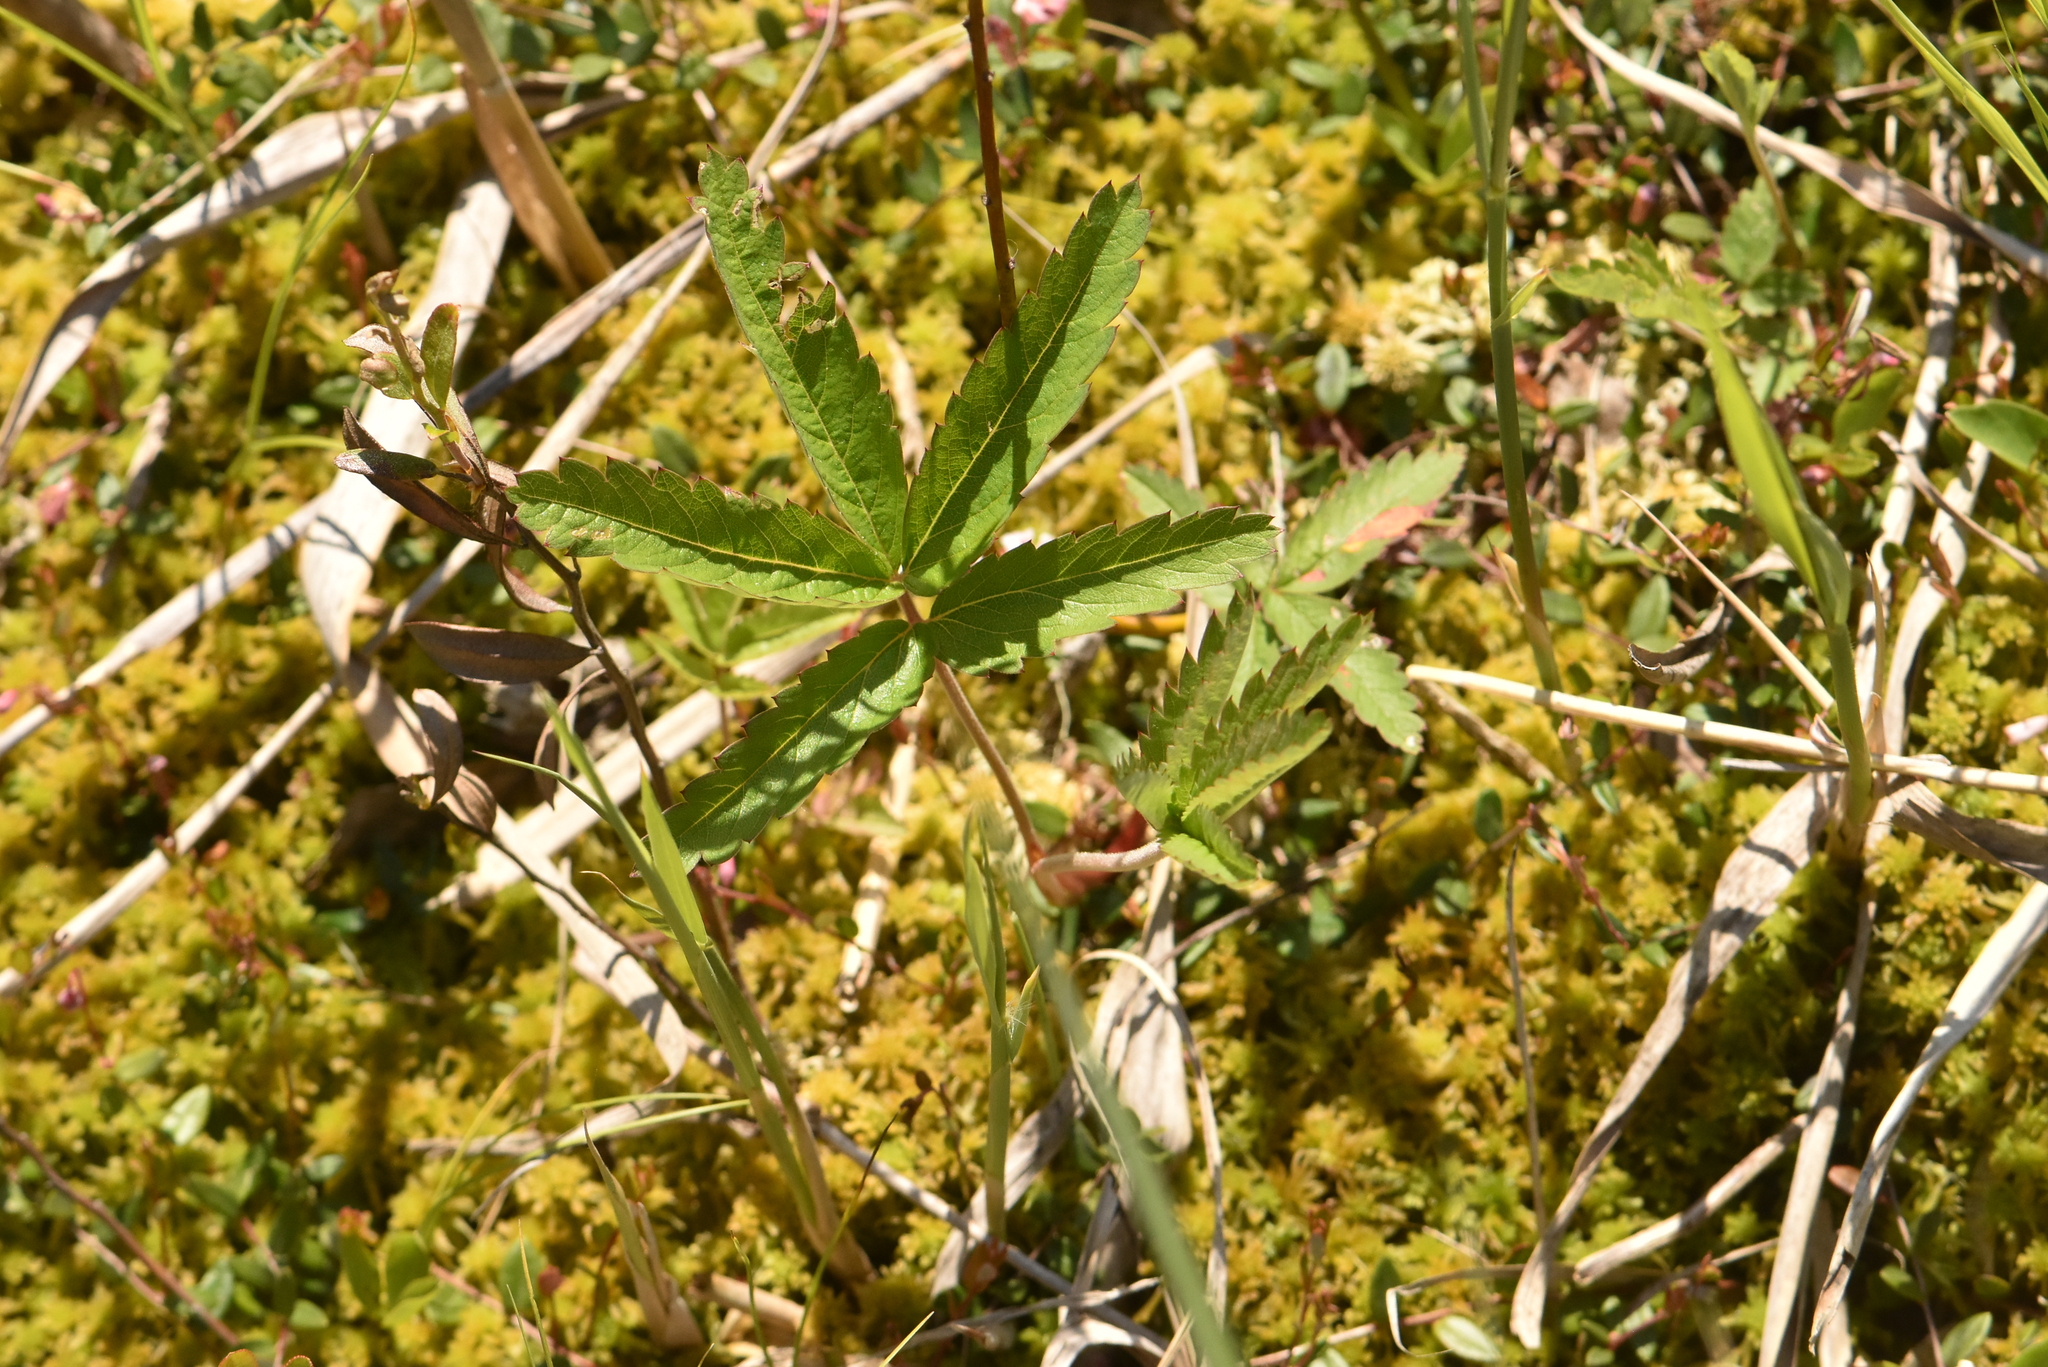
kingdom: Plantae
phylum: Tracheophyta
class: Magnoliopsida
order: Rosales
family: Rosaceae
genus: Comarum
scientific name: Comarum palustre
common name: Marsh cinquefoil
